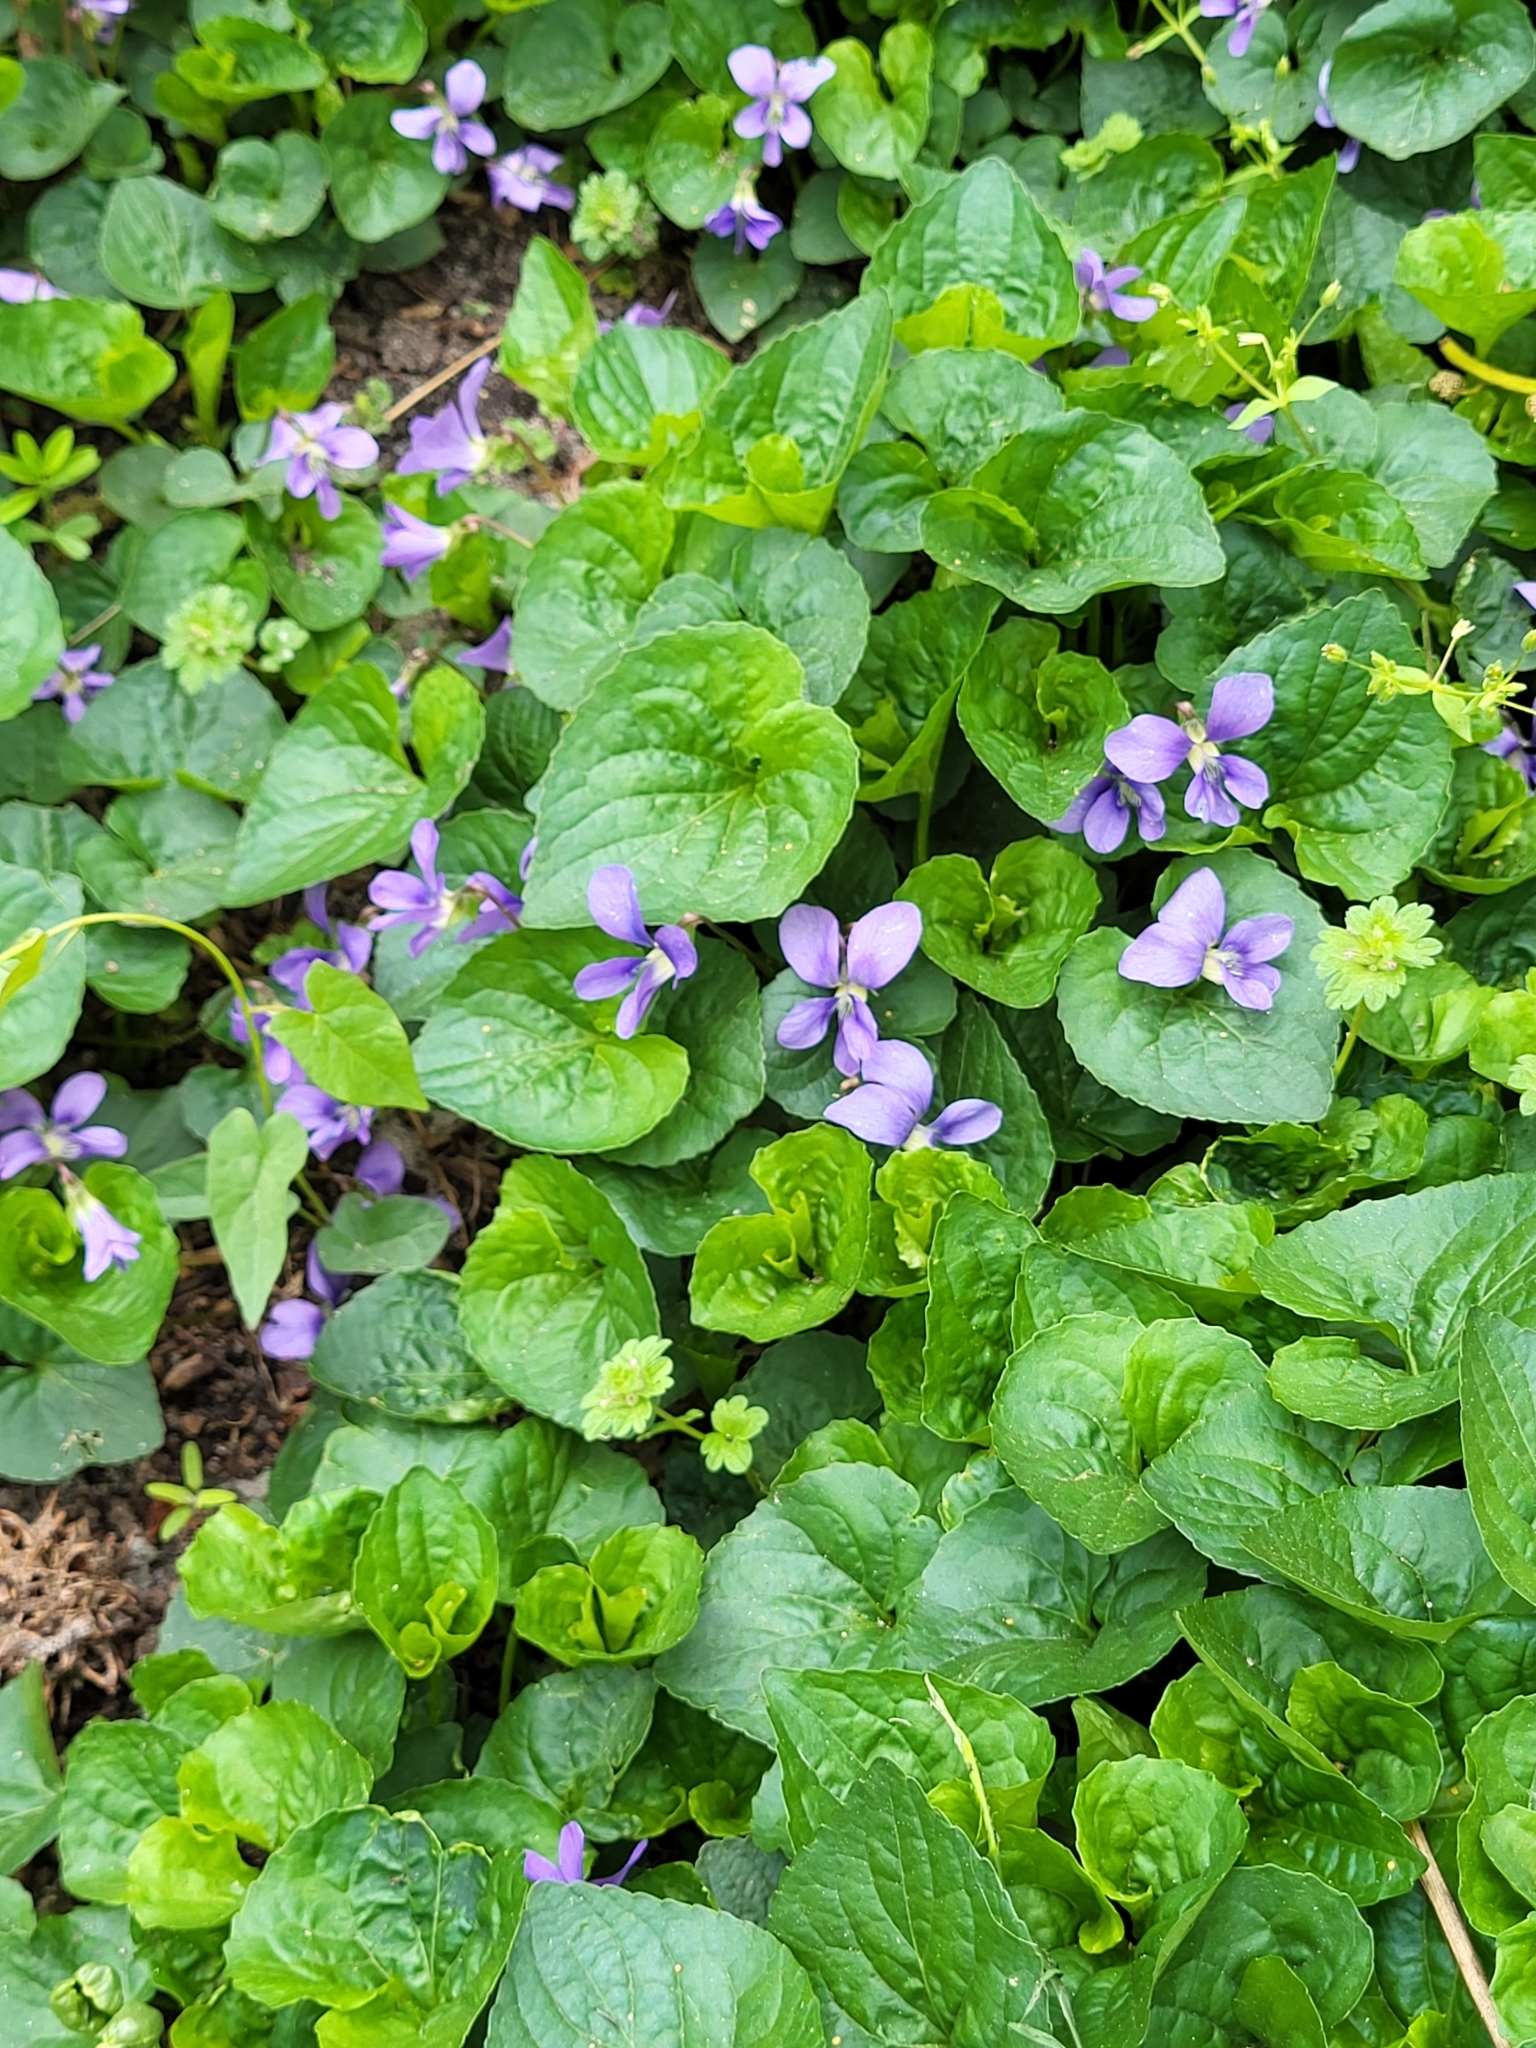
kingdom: Plantae
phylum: Tracheophyta
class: Magnoliopsida
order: Malpighiales
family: Violaceae
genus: Viola
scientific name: Viola sororia
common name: Dooryard violet
